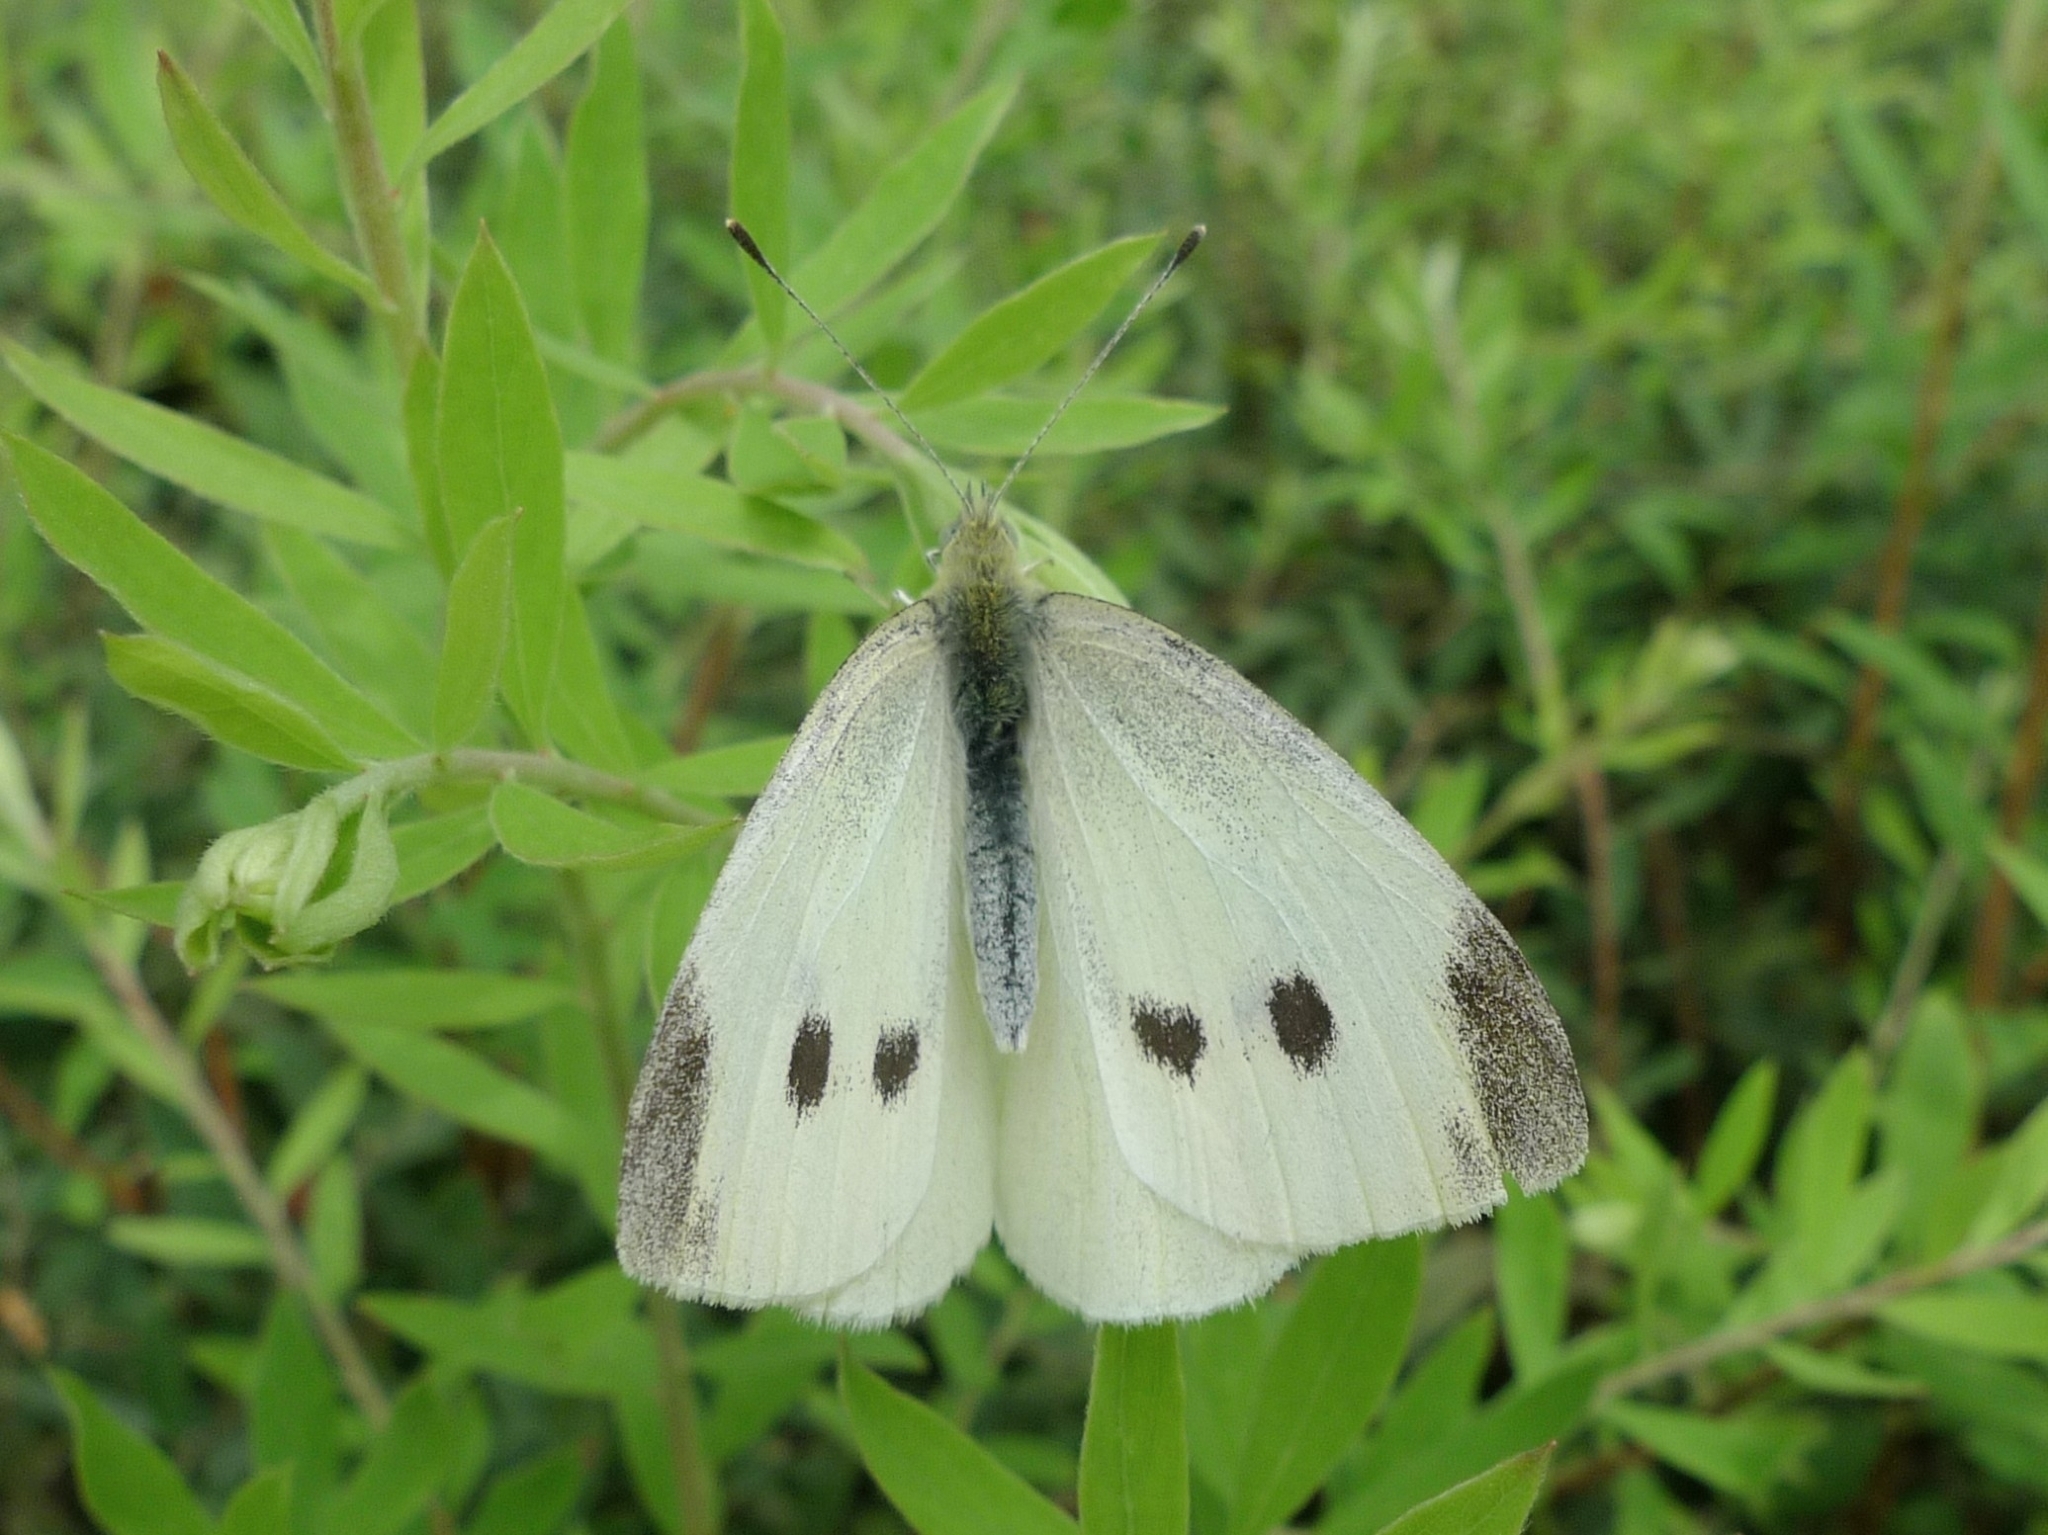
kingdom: Animalia
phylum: Arthropoda
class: Insecta
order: Lepidoptera
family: Pieridae
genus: Pieris
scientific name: Pieris rapae
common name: Small white
